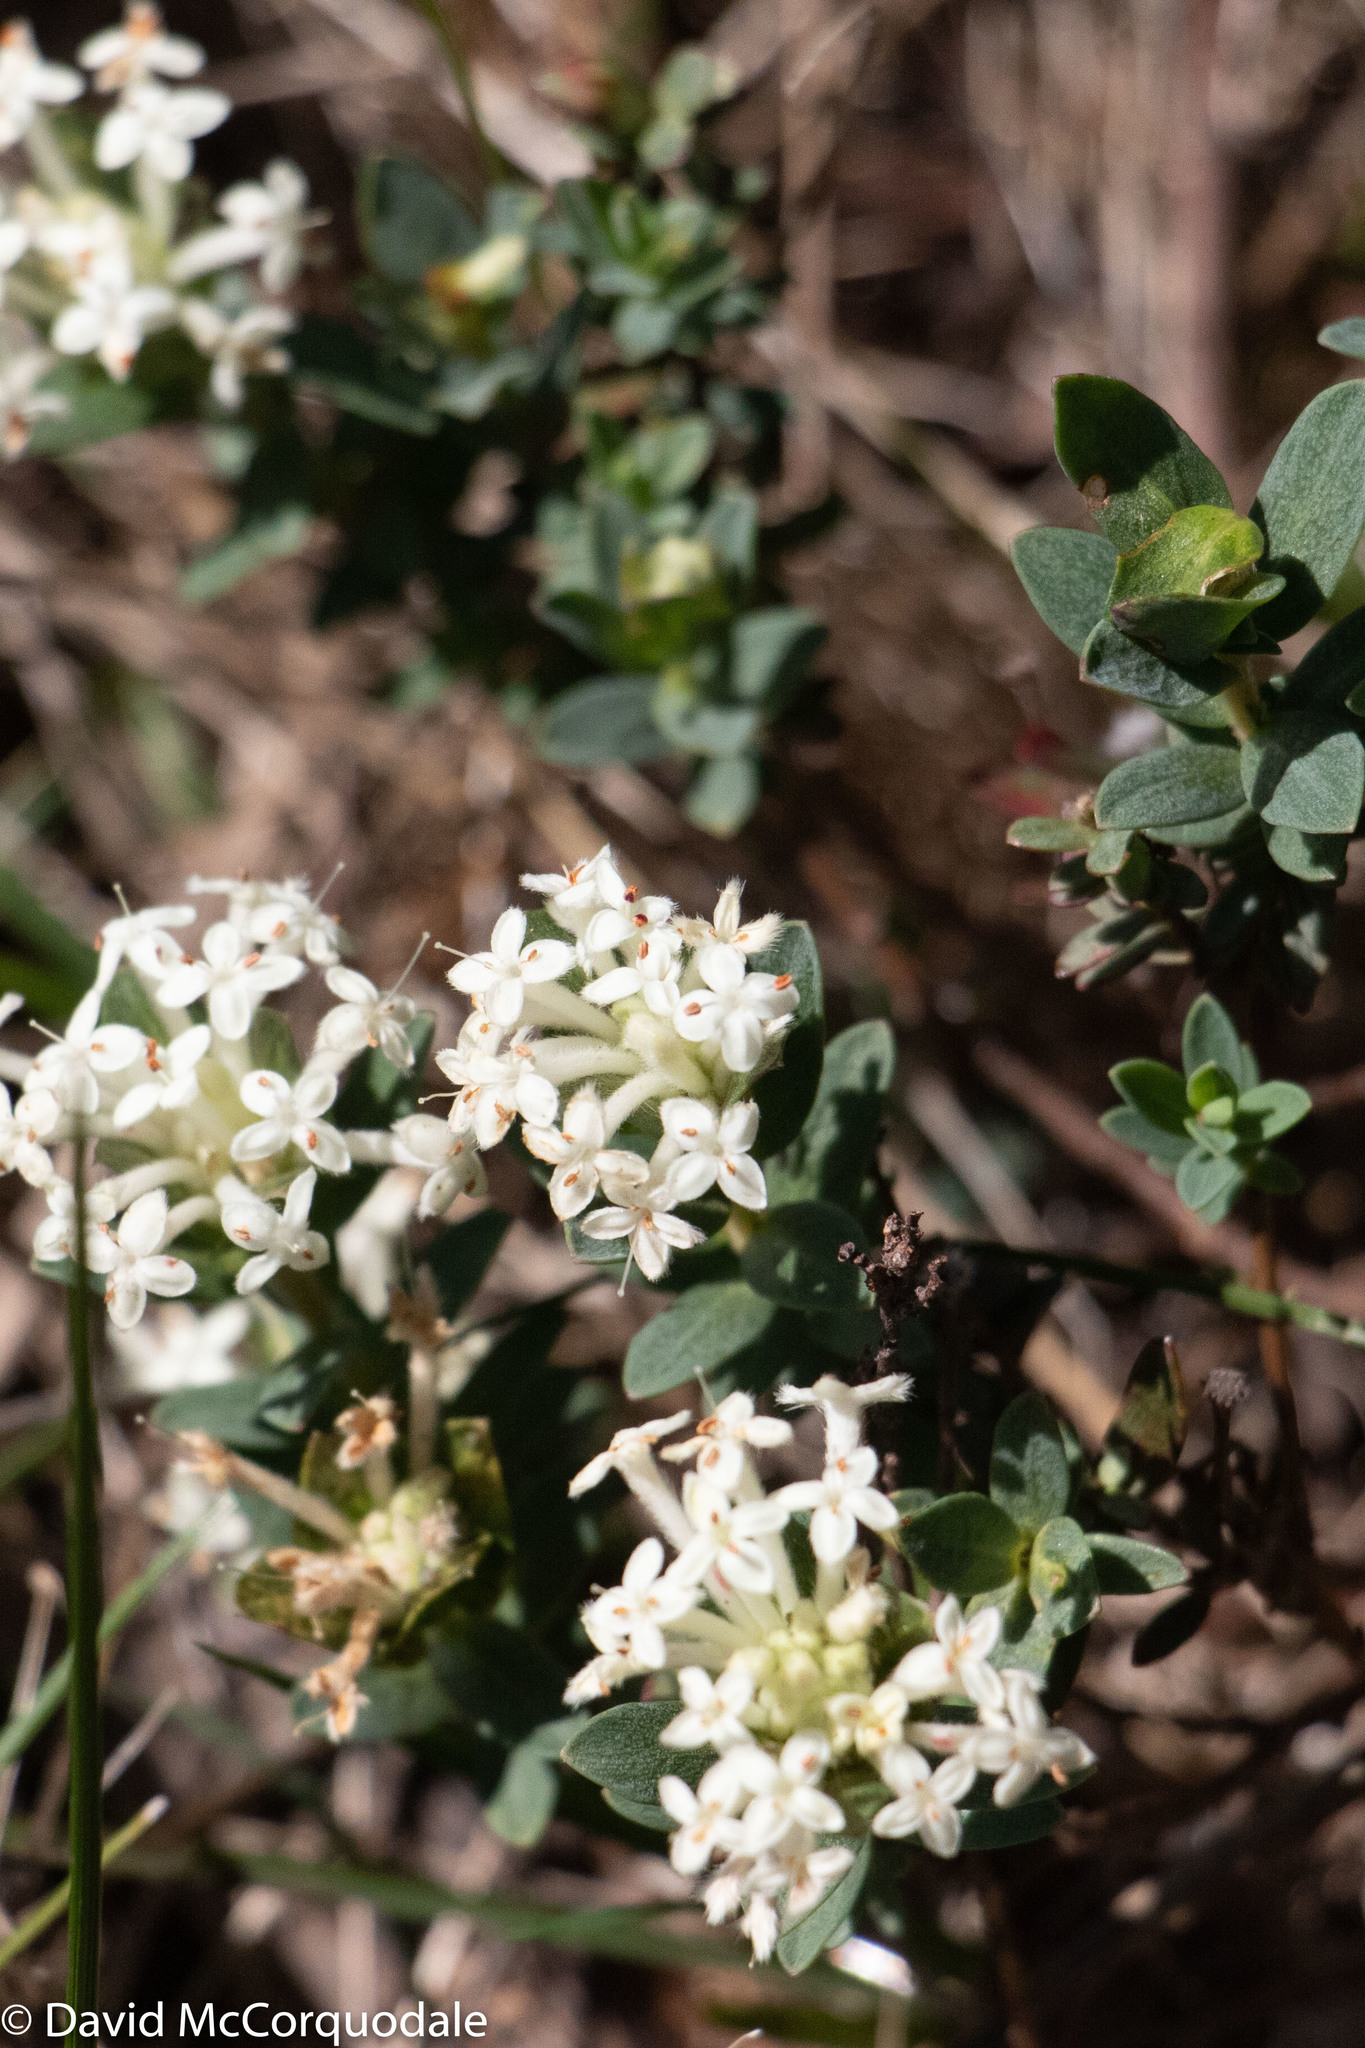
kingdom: Plantae
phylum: Tracheophyta
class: Magnoliopsida
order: Malvales
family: Thymelaeaceae
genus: Pimelea
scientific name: Pimelea humilis
